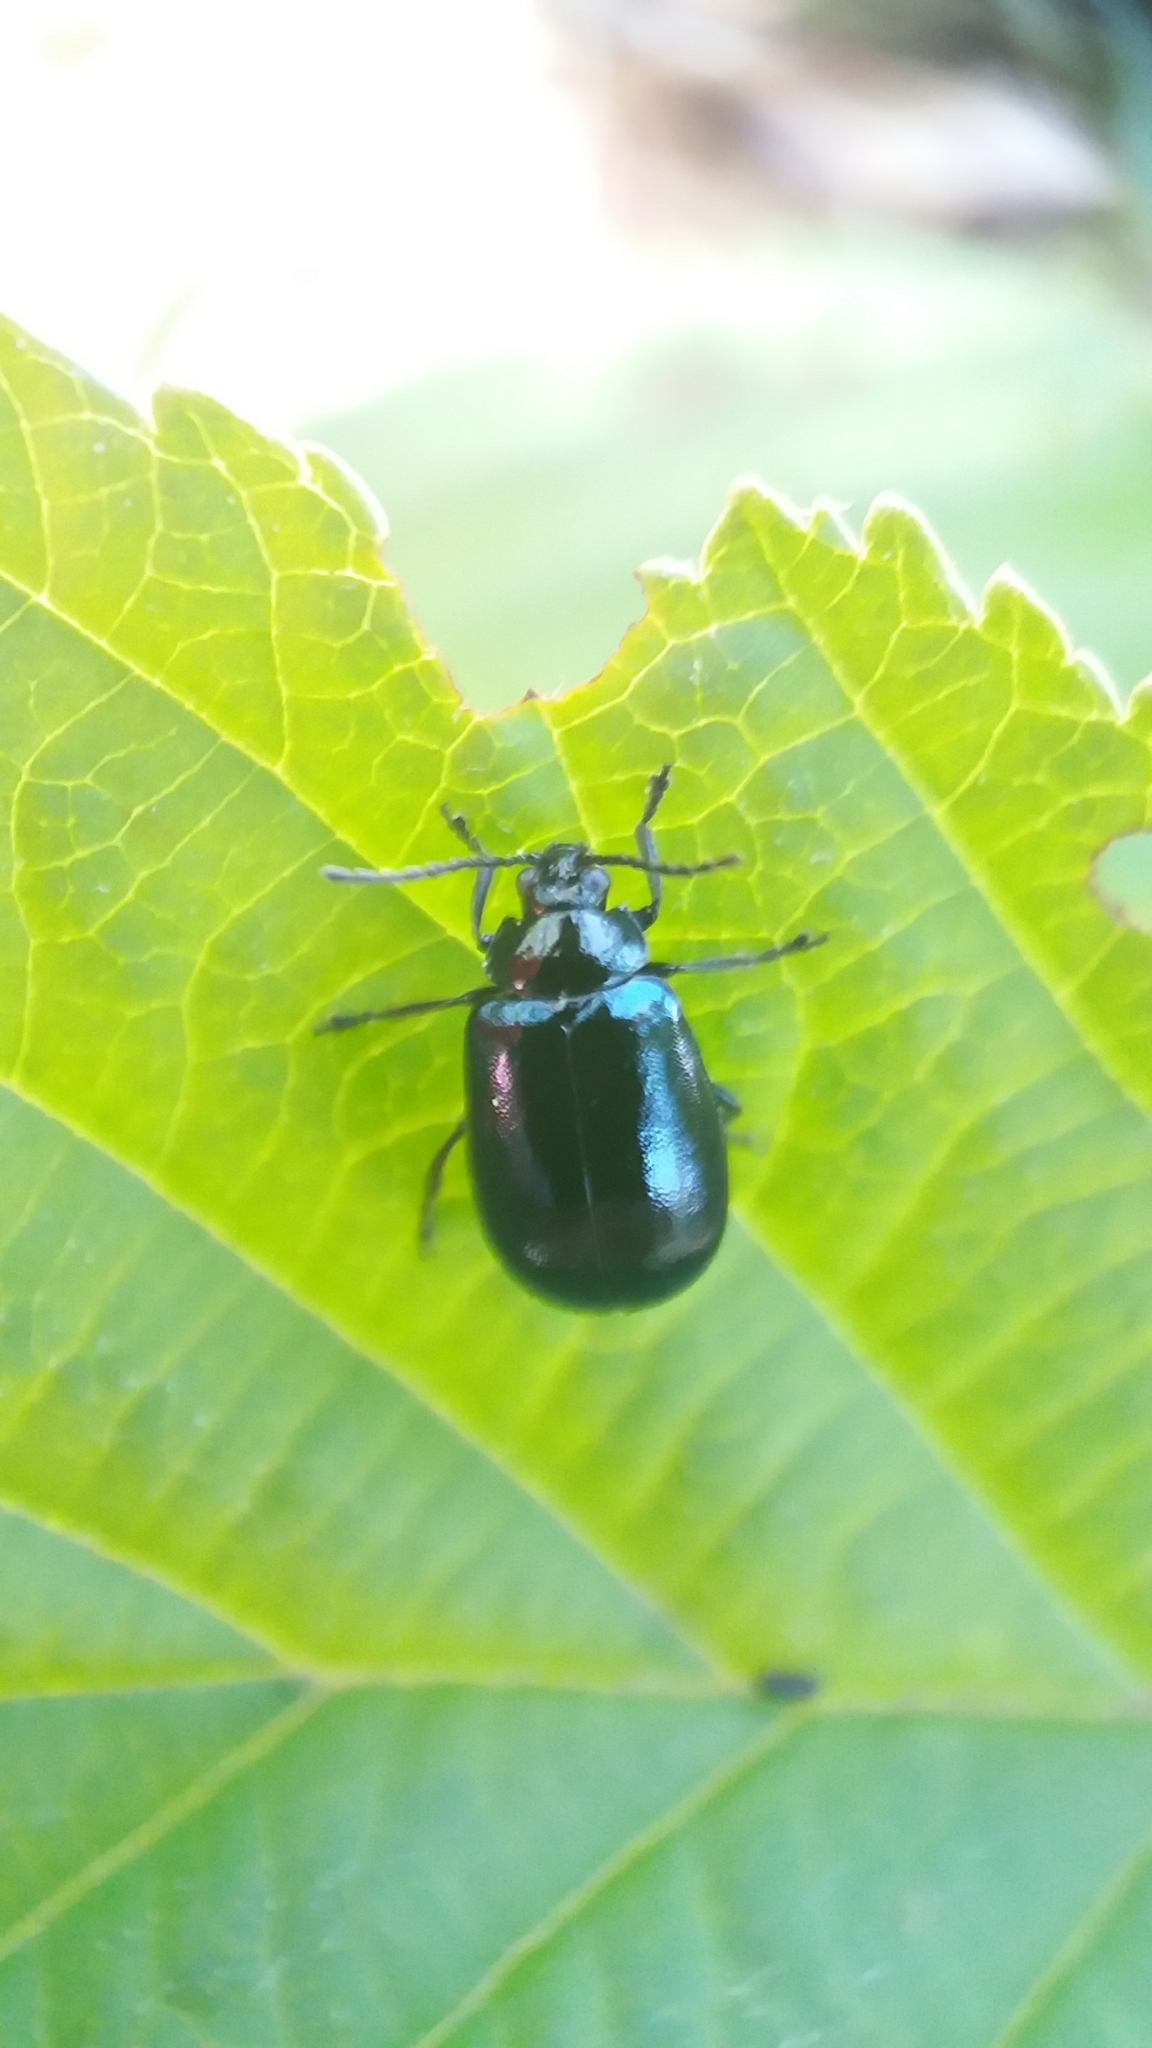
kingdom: Animalia
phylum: Arthropoda
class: Insecta
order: Coleoptera
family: Chrysomelidae
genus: Agelastica
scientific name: Agelastica alni
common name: Alder leaf beetle
